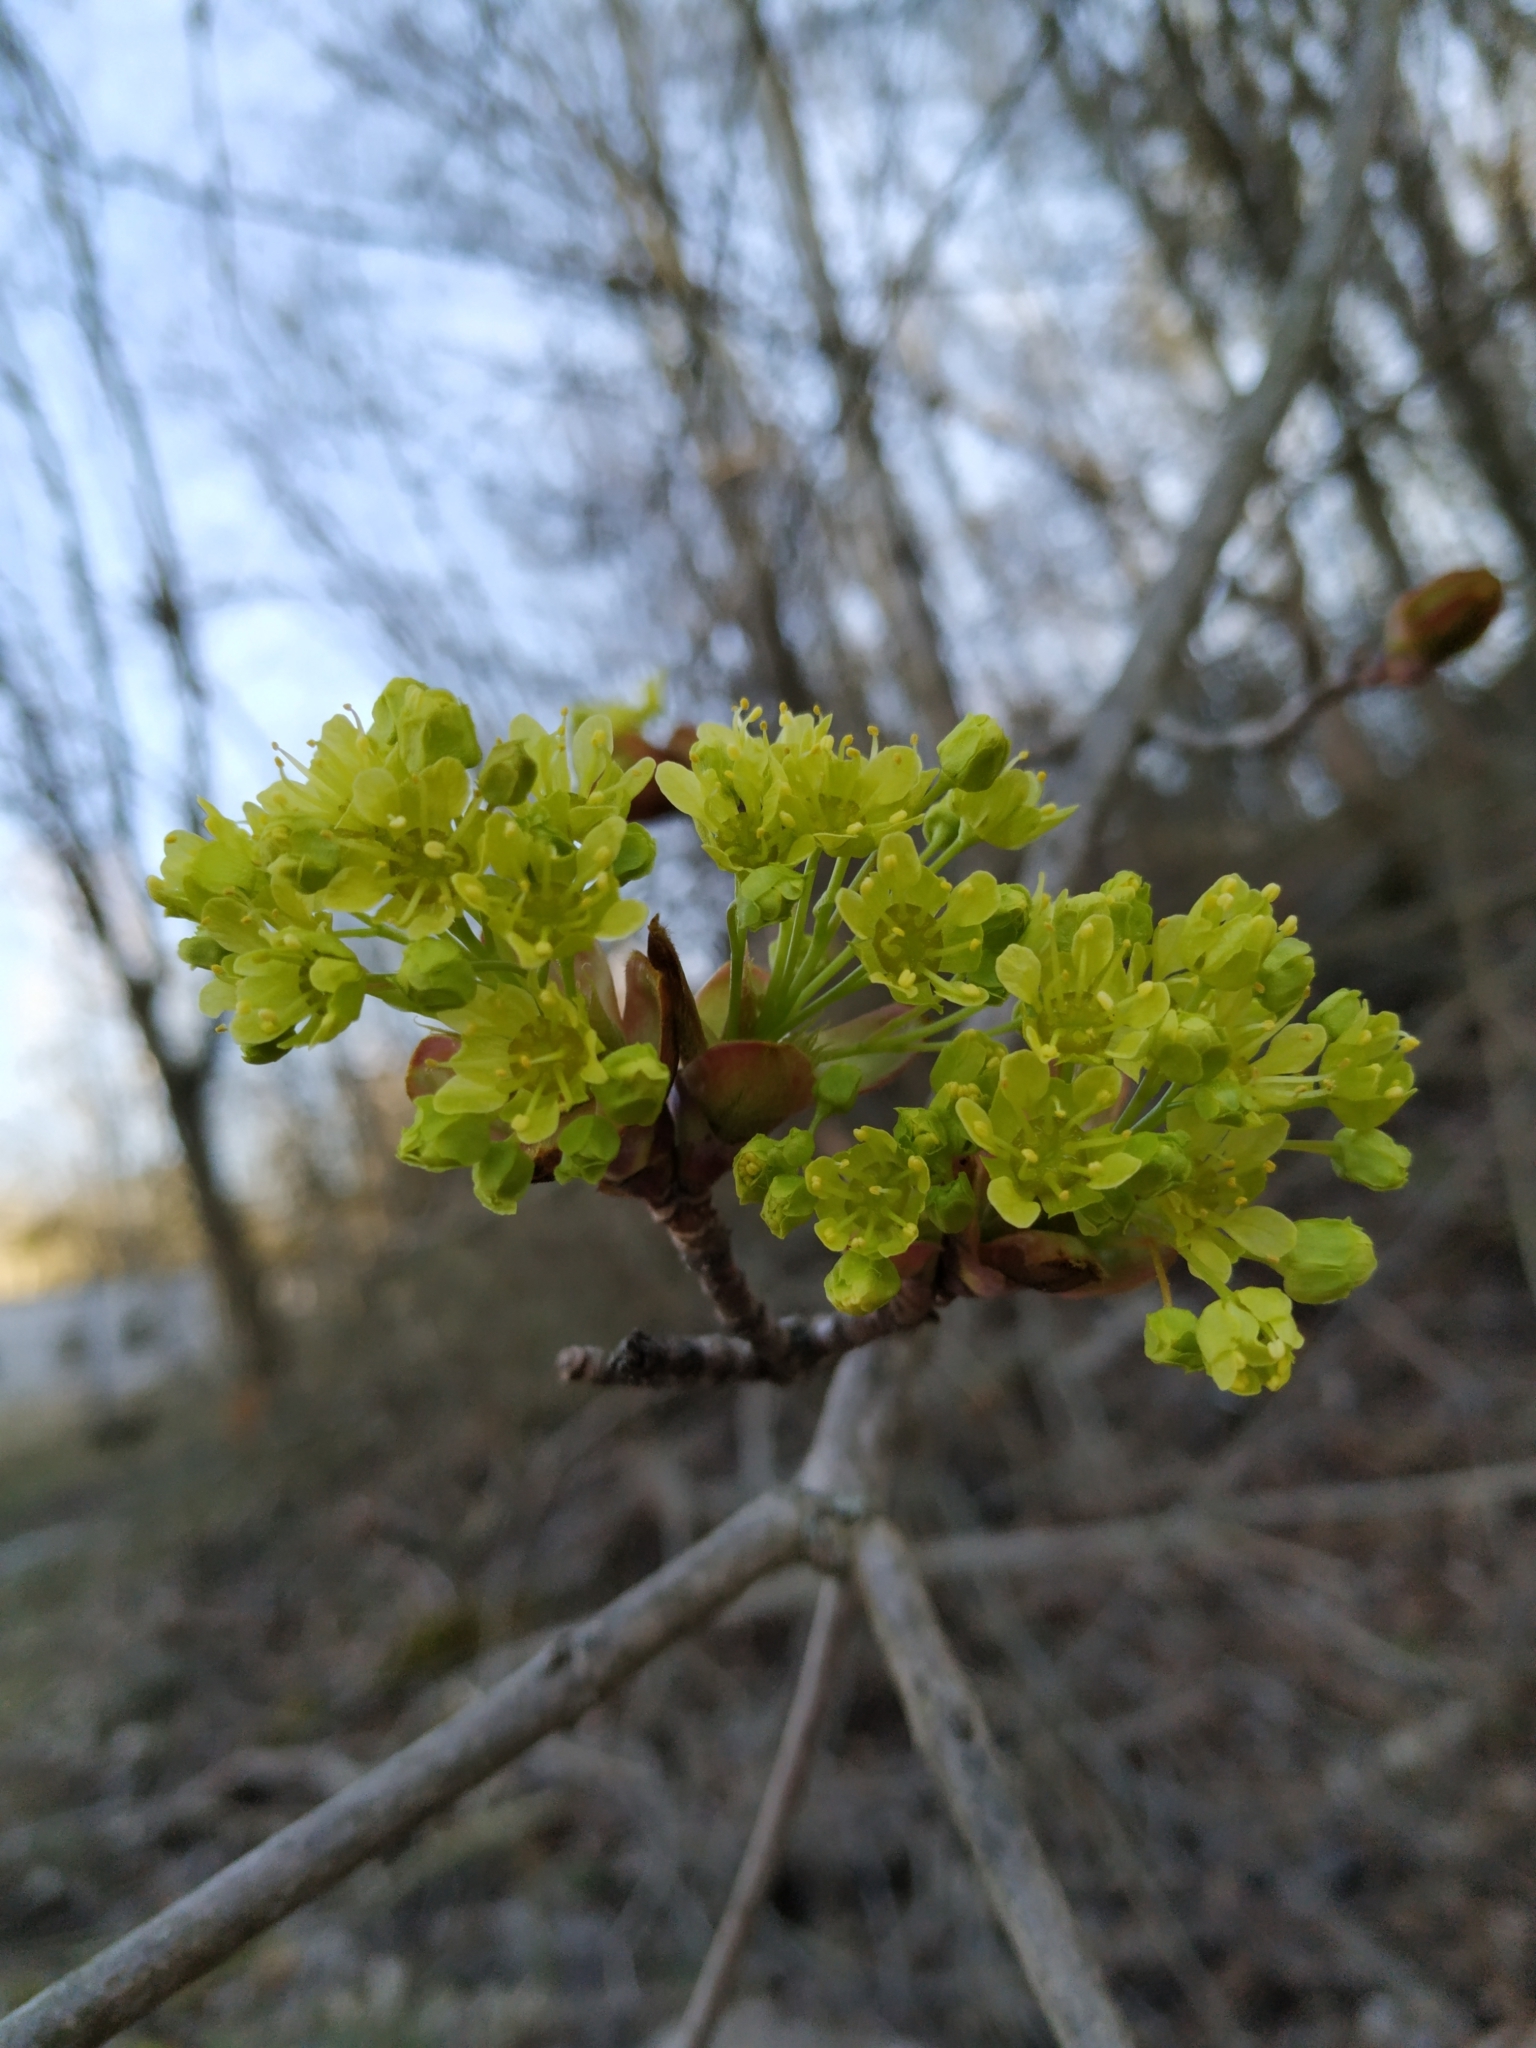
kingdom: Plantae
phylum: Tracheophyta
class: Magnoliopsida
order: Sapindales
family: Sapindaceae
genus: Acer
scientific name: Acer platanoides
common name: Norway maple
